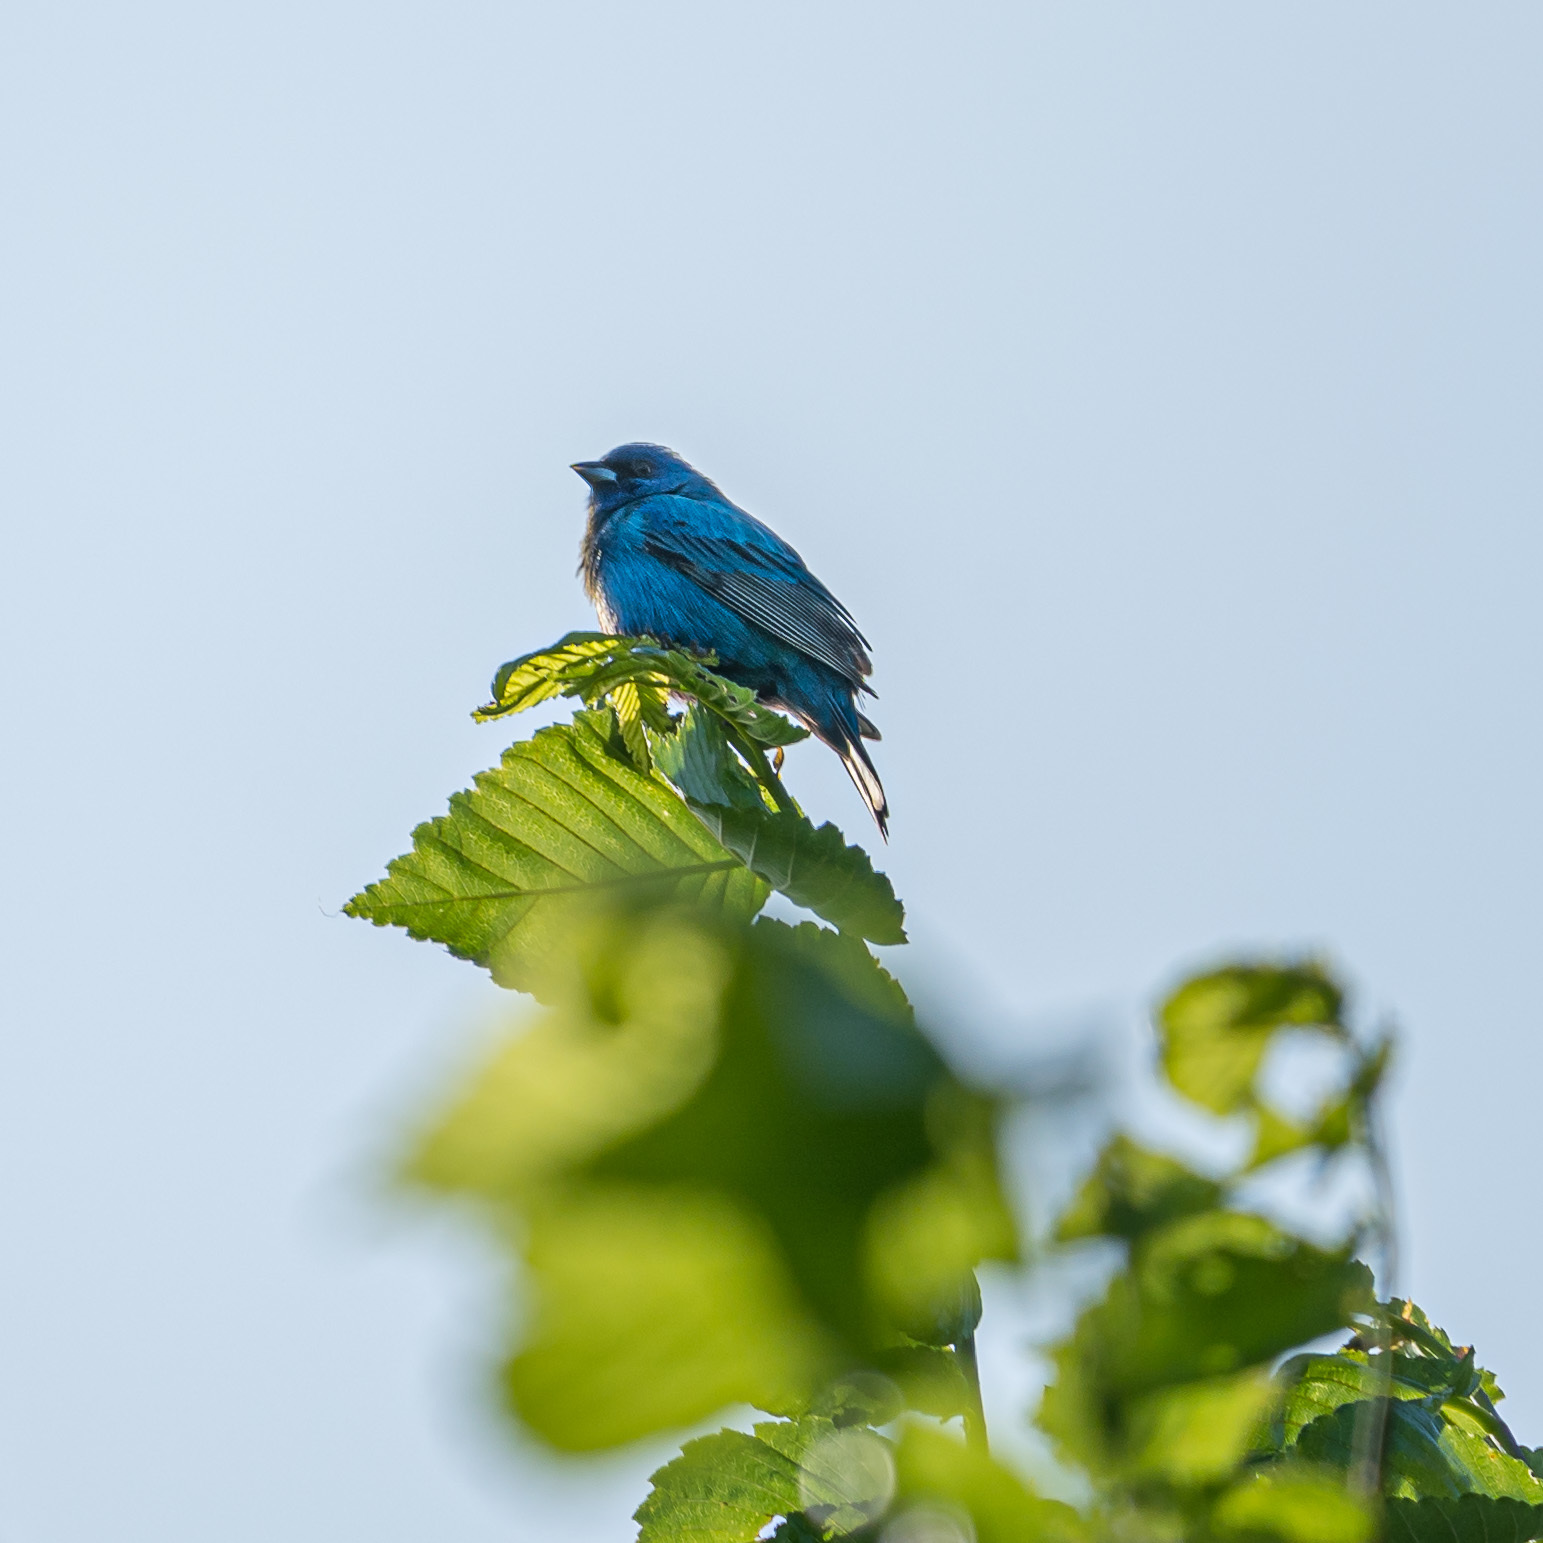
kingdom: Animalia
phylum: Chordata
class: Aves
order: Passeriformes
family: Cardinalidae
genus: Passerina
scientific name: Passerina cyanea
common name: Indigo bunting
